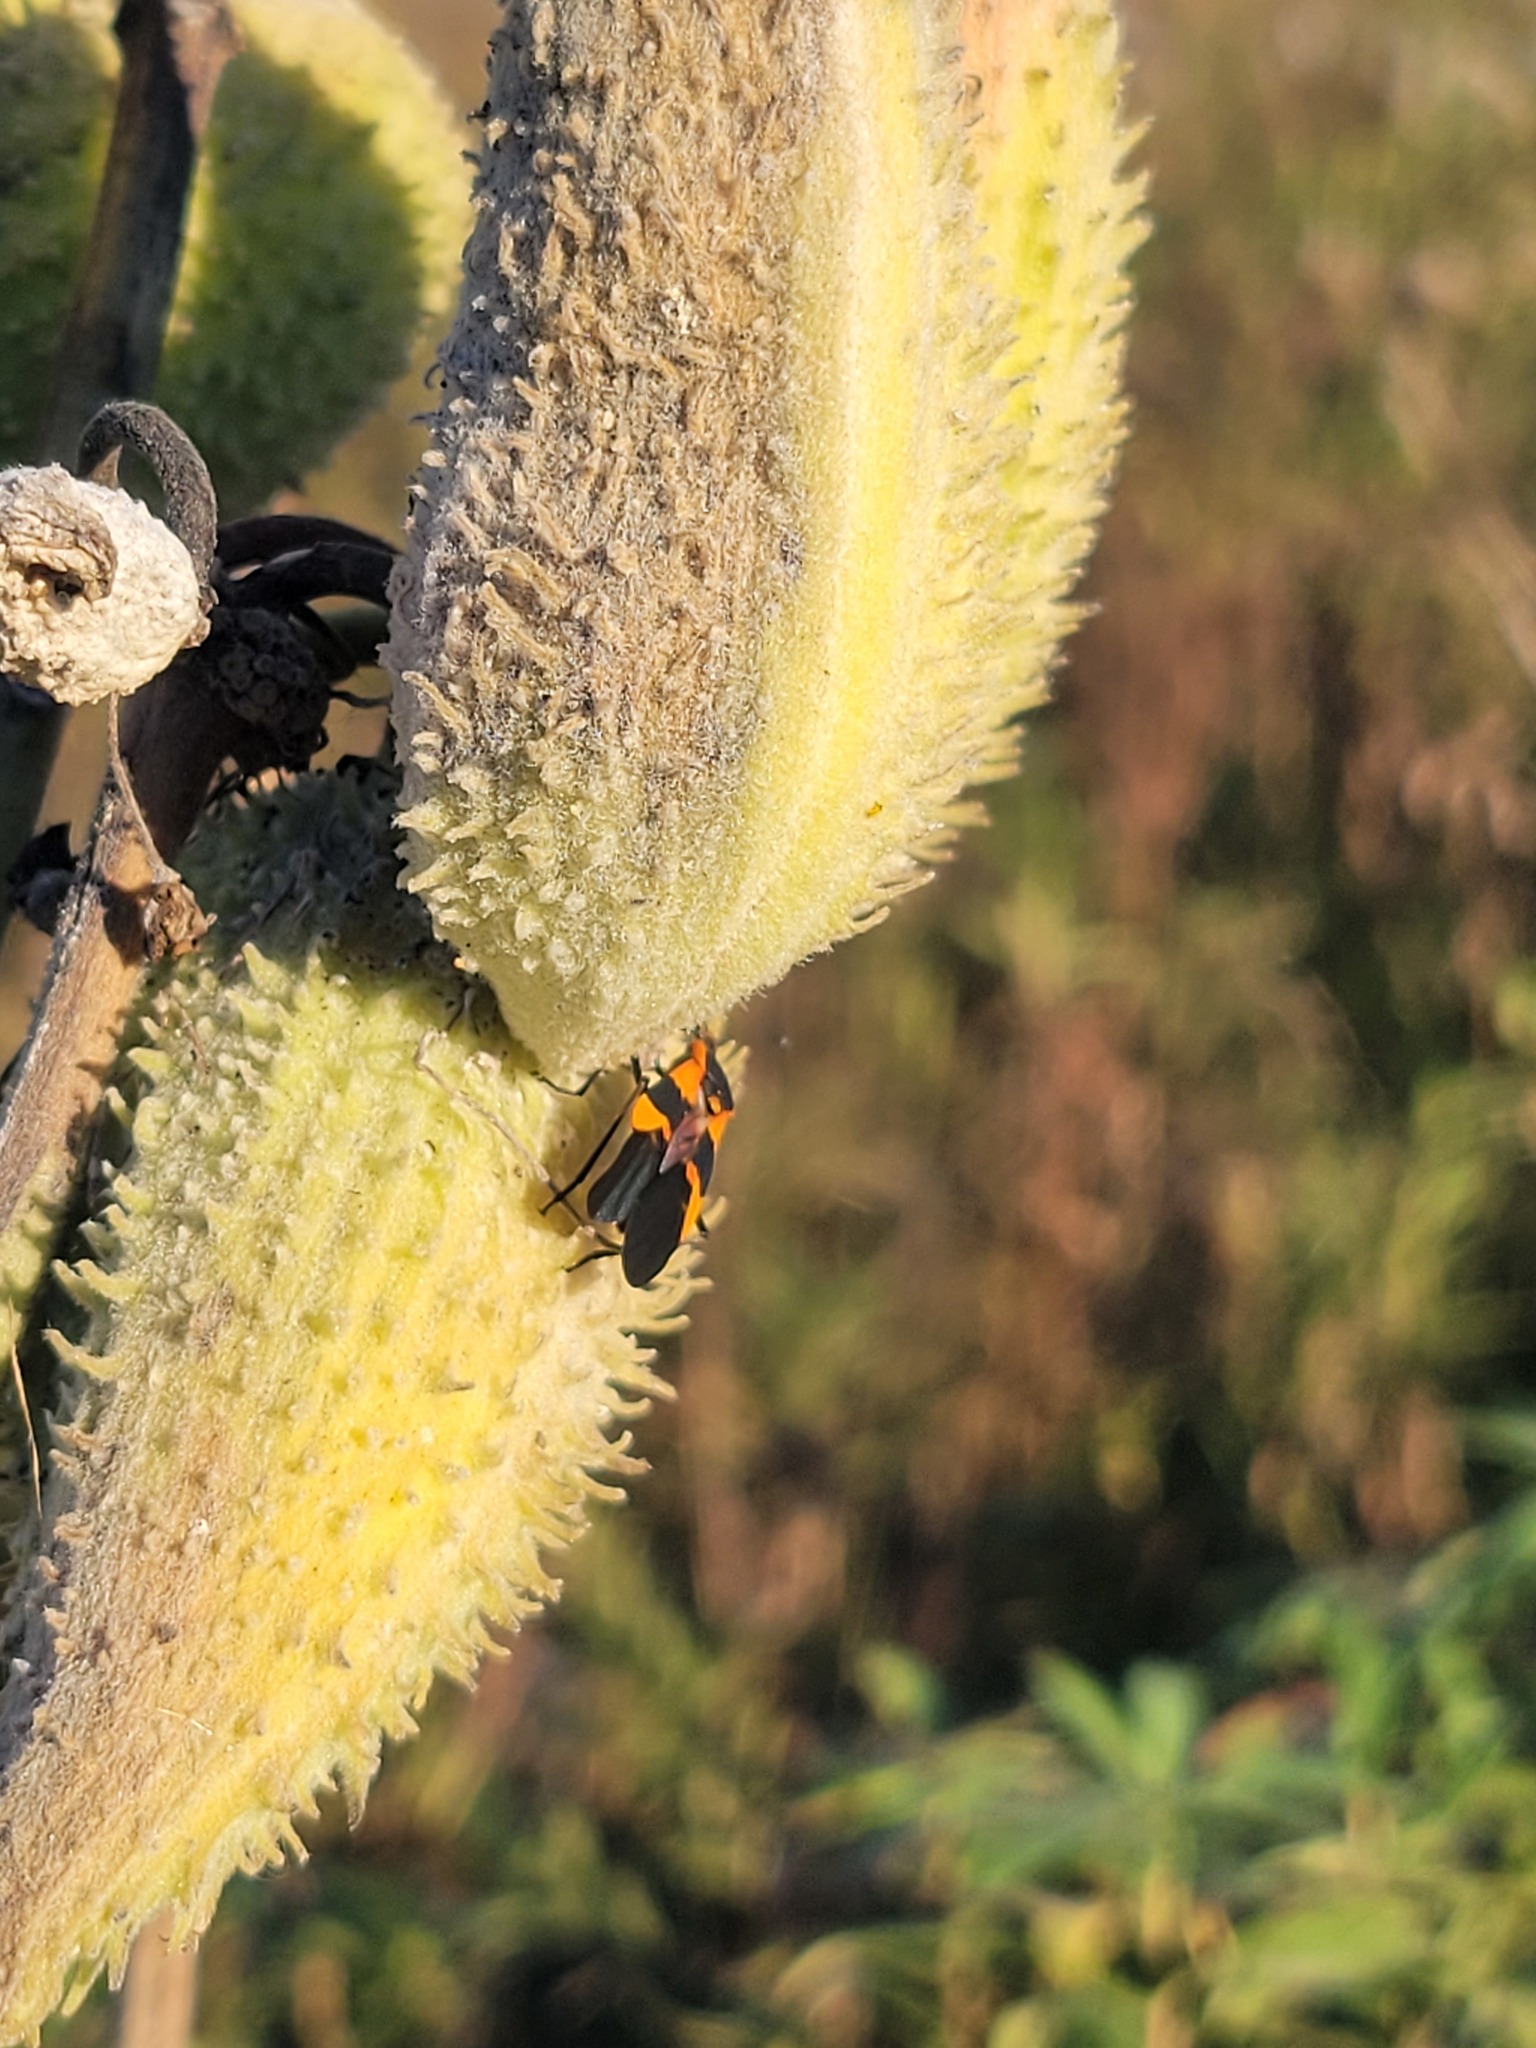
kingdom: Plantae
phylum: Tracheophyta
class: Magnoliopsida
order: Gentianales
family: Apocynaceae
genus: Asclepias
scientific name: Asclepias syriaca
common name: Common milkweed
